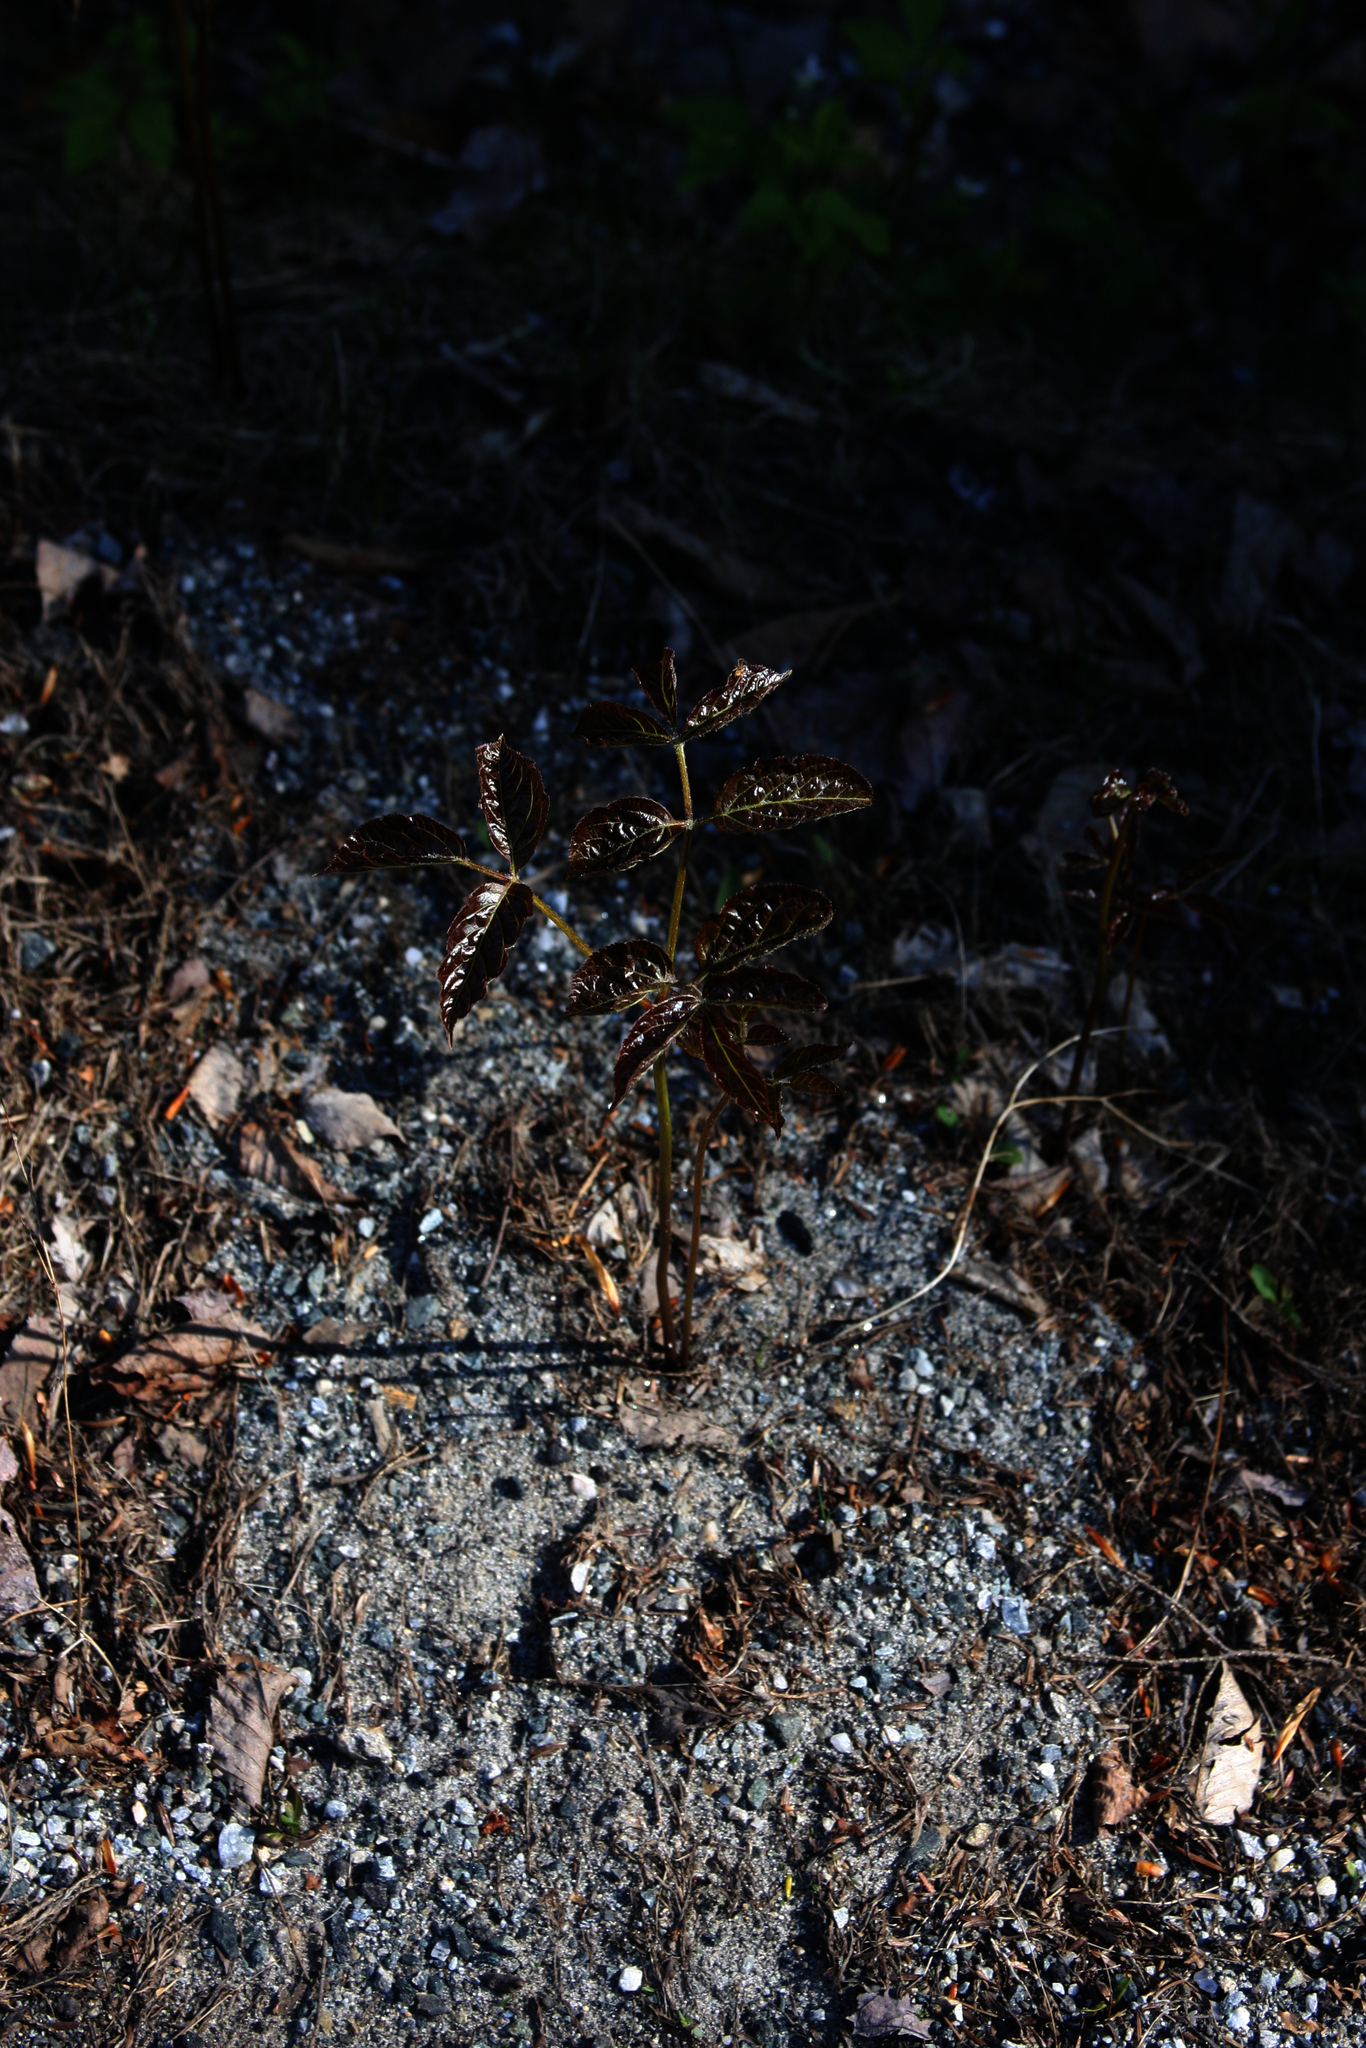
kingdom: Plantae
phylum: Tracheophyta
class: Magnoliopsida
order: Apiales
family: Araliaceae
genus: Aralia
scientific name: Aralia nudicaulis
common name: Wild sarsaparilla
